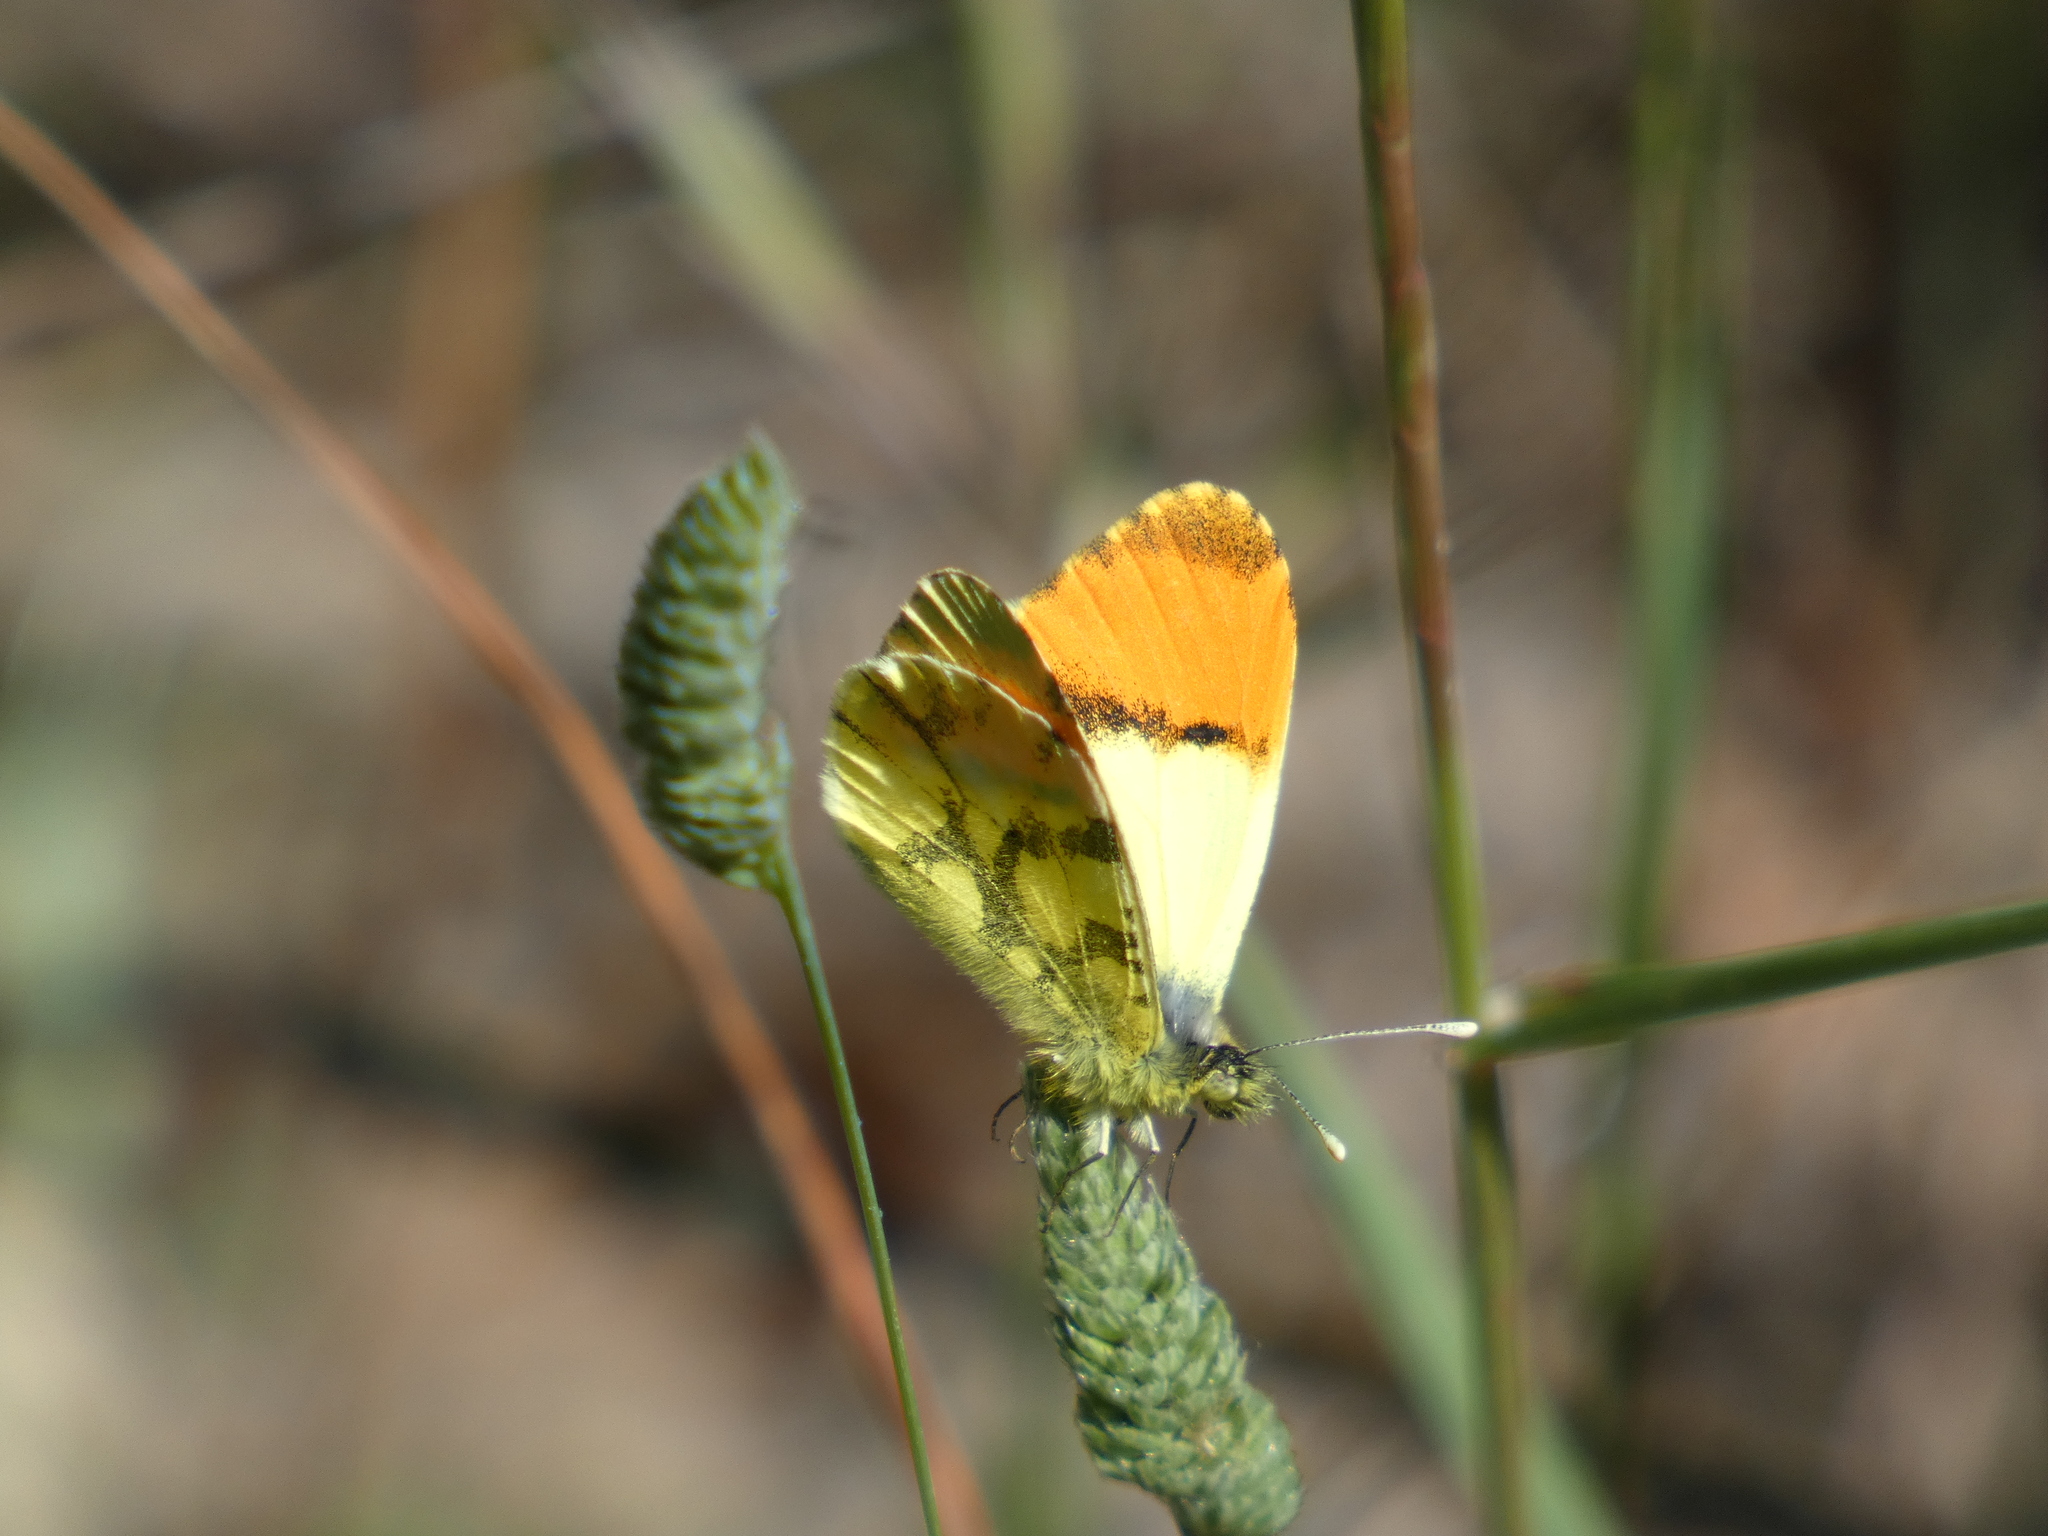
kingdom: Animalia
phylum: Arthropoda
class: Insecta
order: Lepidoptera
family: Pieridae
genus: Anthocharis
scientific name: Anthocharis euphenoides
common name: Provence orange-tip
